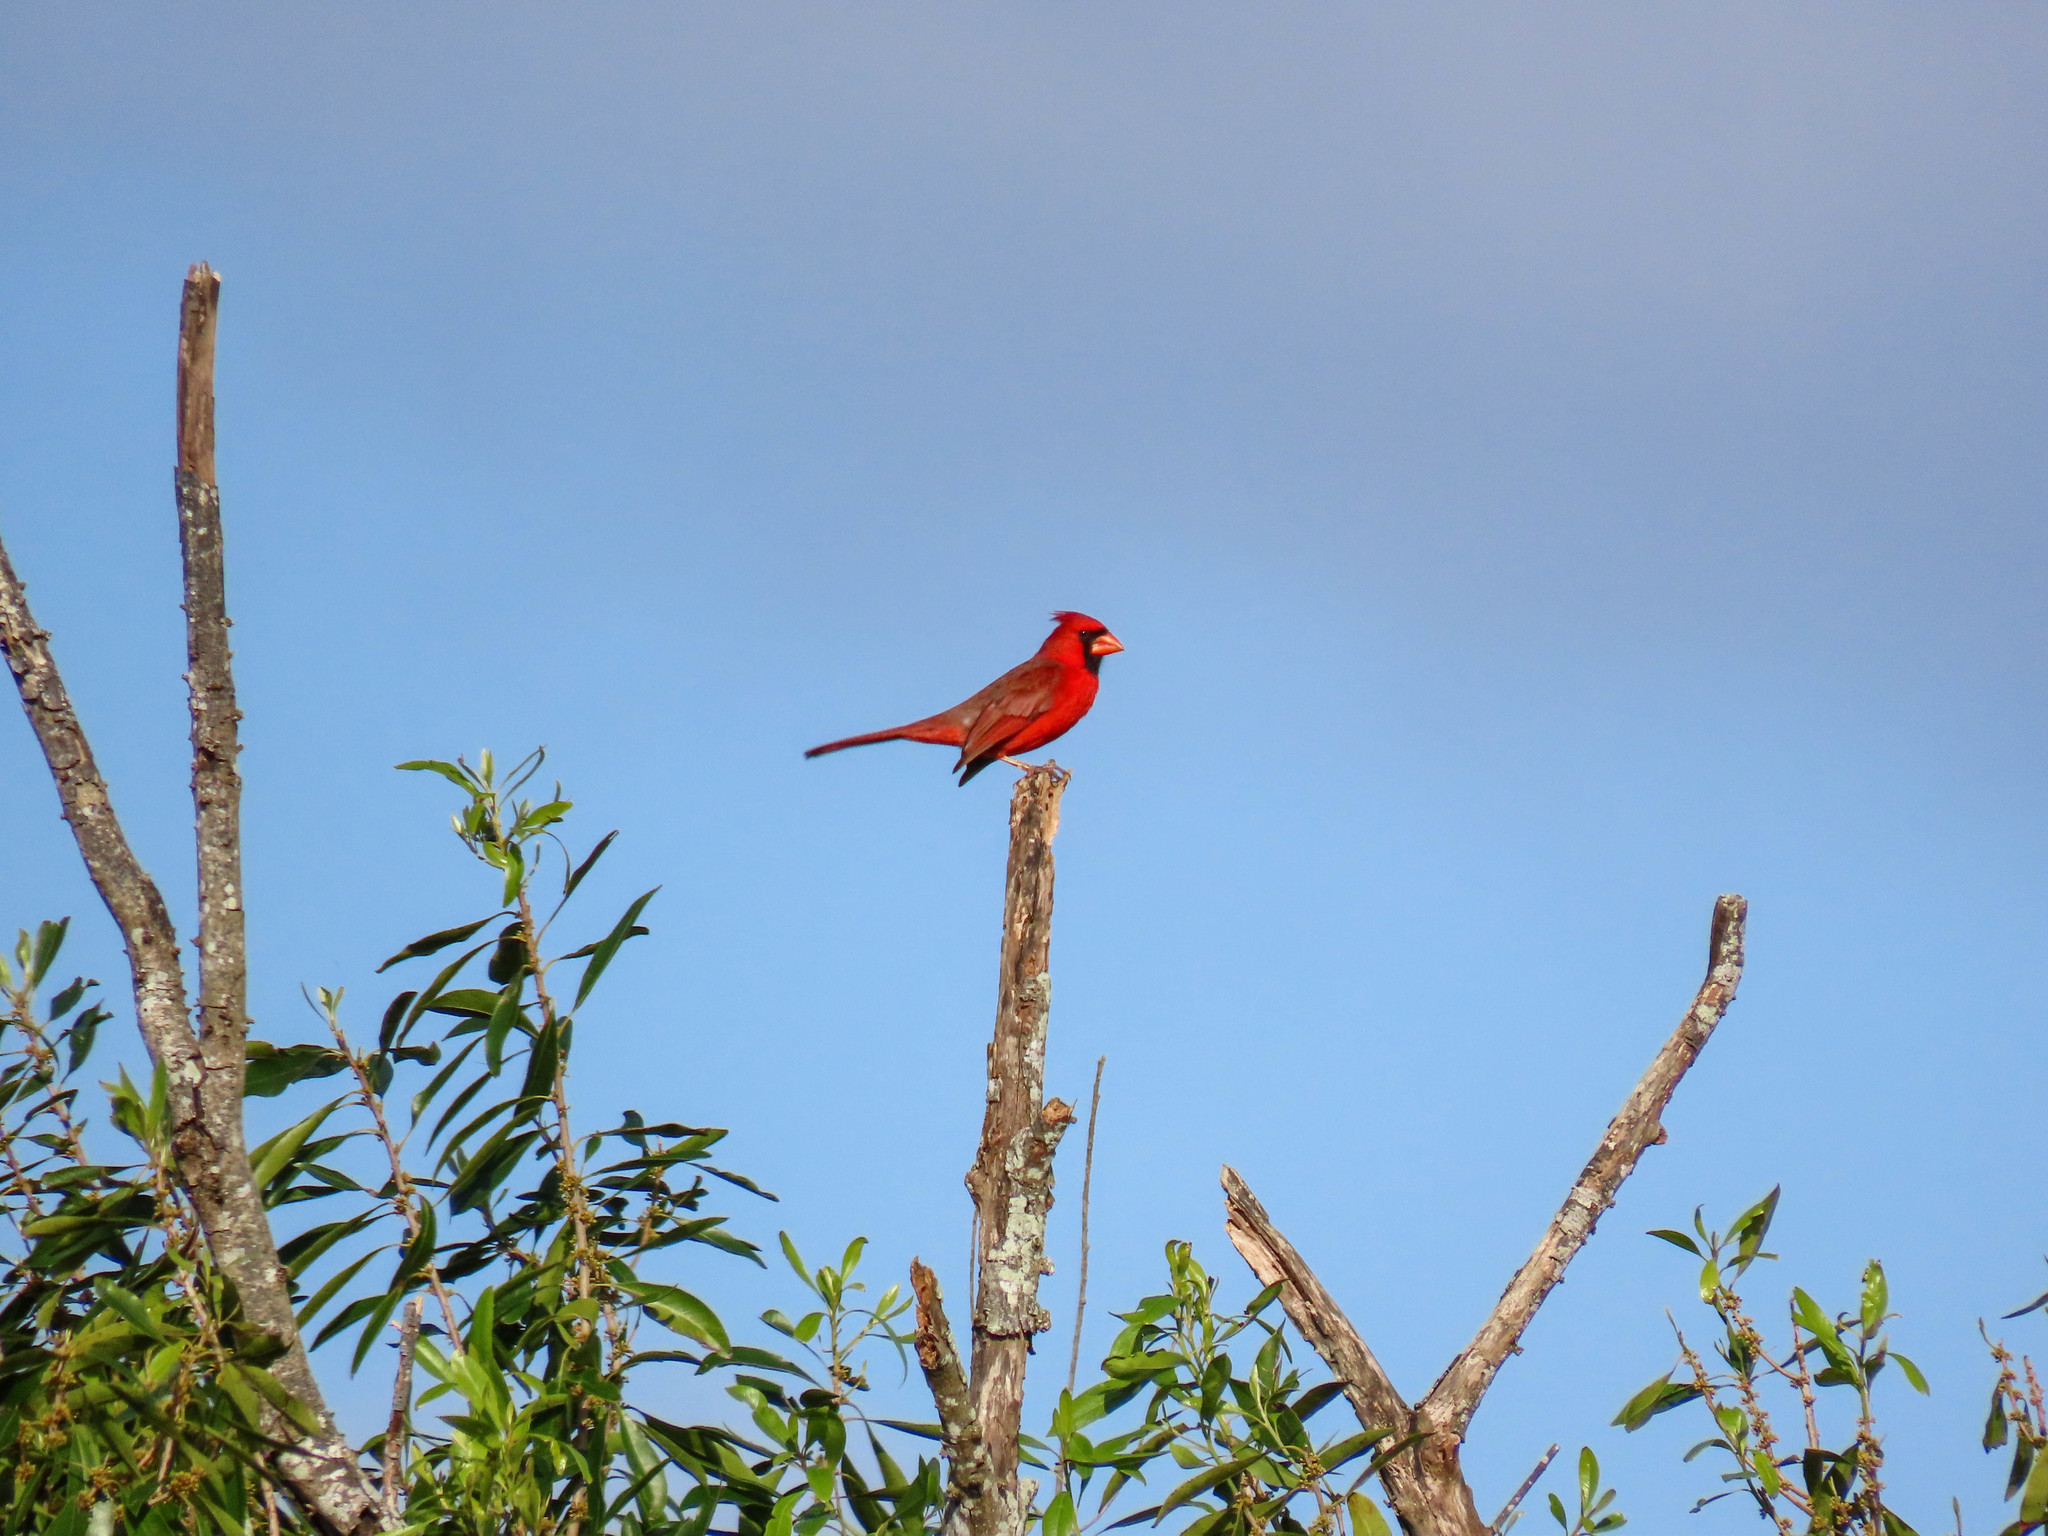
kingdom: Animalia
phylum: Chordata
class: Aves
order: Passeriformes
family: Cardinalidae
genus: Cardinalis
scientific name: Cardinalis cardinalis
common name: Northern cardinal
